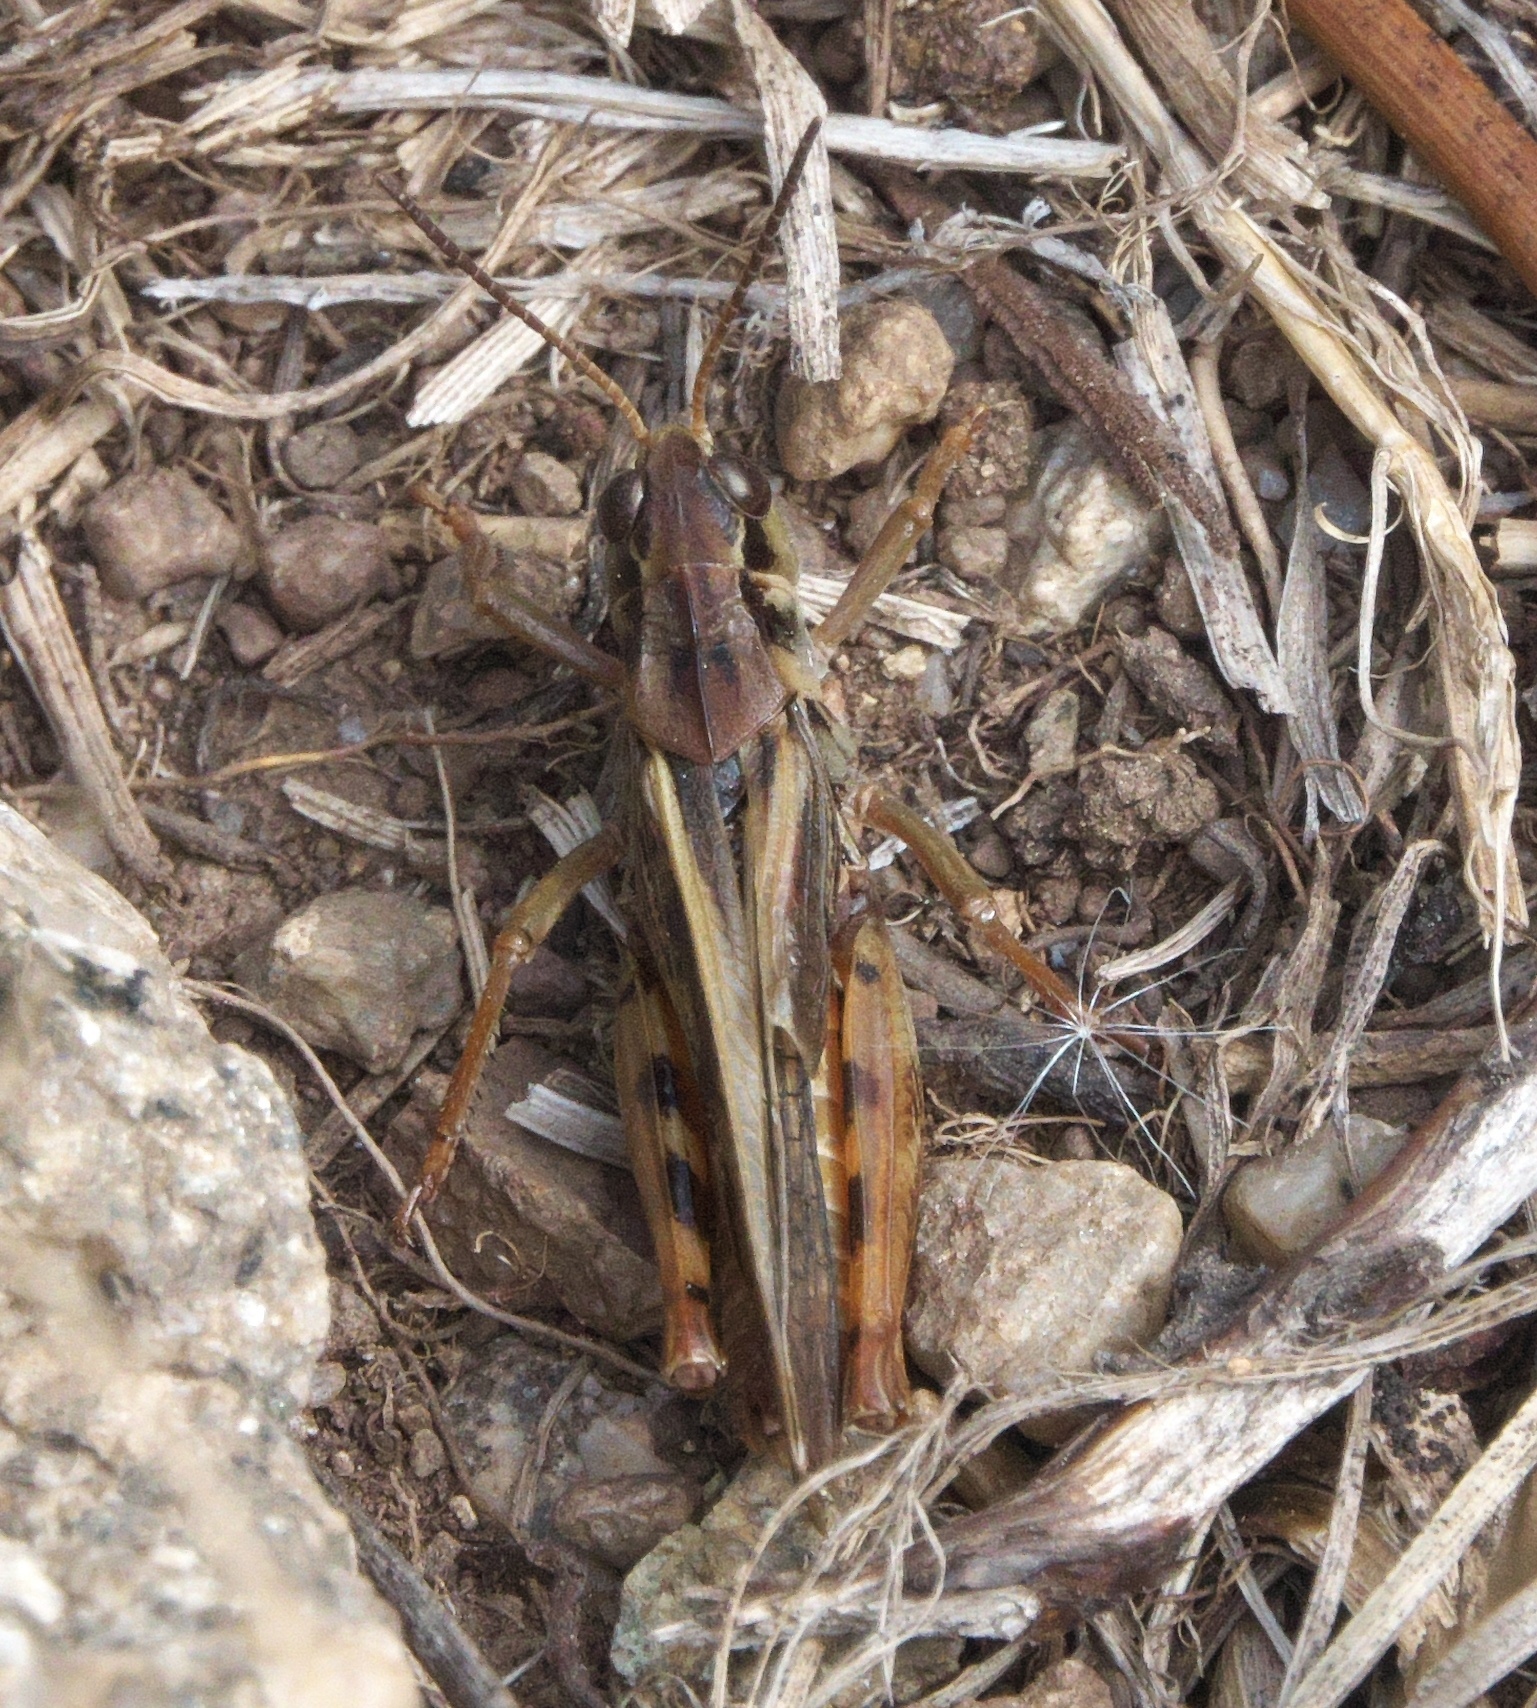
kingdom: Animalia
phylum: Arthropoda
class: Insecta
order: Orthoptera
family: Acrididae
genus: Camnula
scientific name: Camnula pellucida
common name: Clear-winged grasshopper
